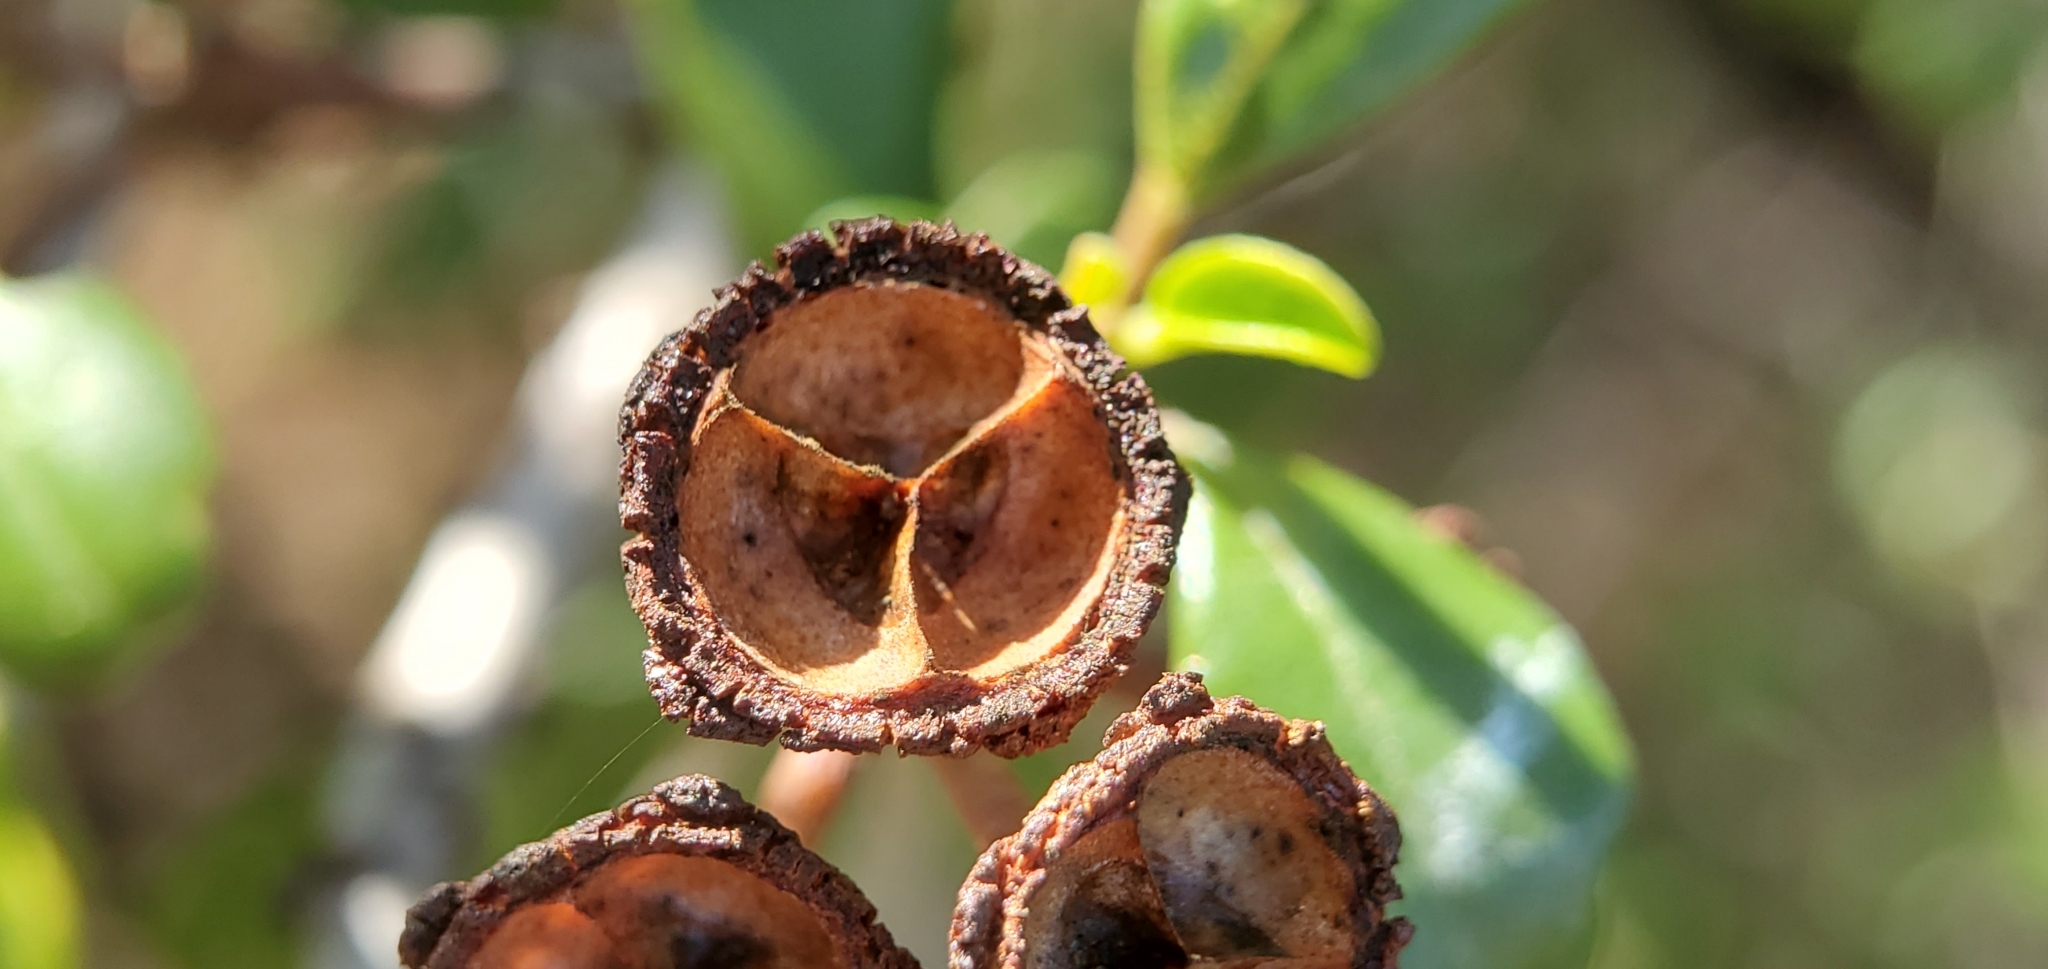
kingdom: Plantae
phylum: Tracheophyta
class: Magnoliopsida
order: Rosales
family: Rhamnaceae
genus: Ceanothus
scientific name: Ceanothus megacarpus
